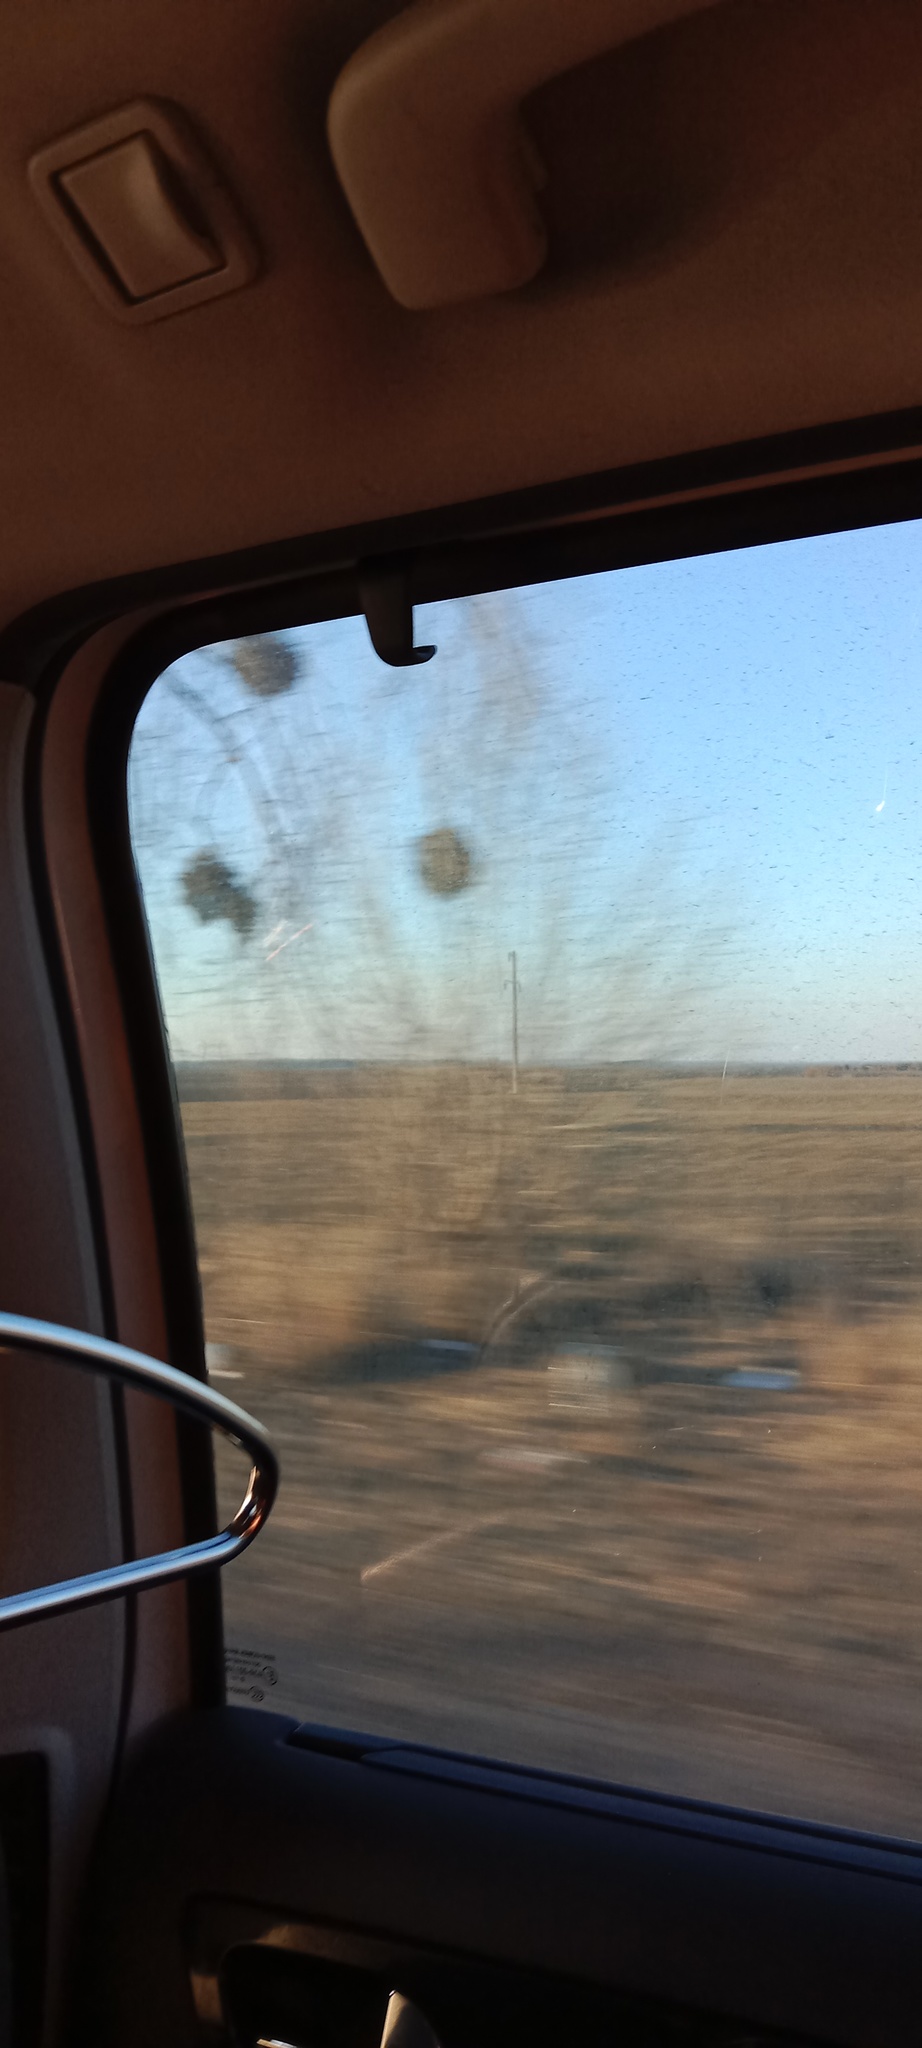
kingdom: Plantae
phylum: Tracheophyta
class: Magnoliopsida
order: Santalales
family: Viscaceae
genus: Viscum
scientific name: Viscum album
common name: Mistletoe
